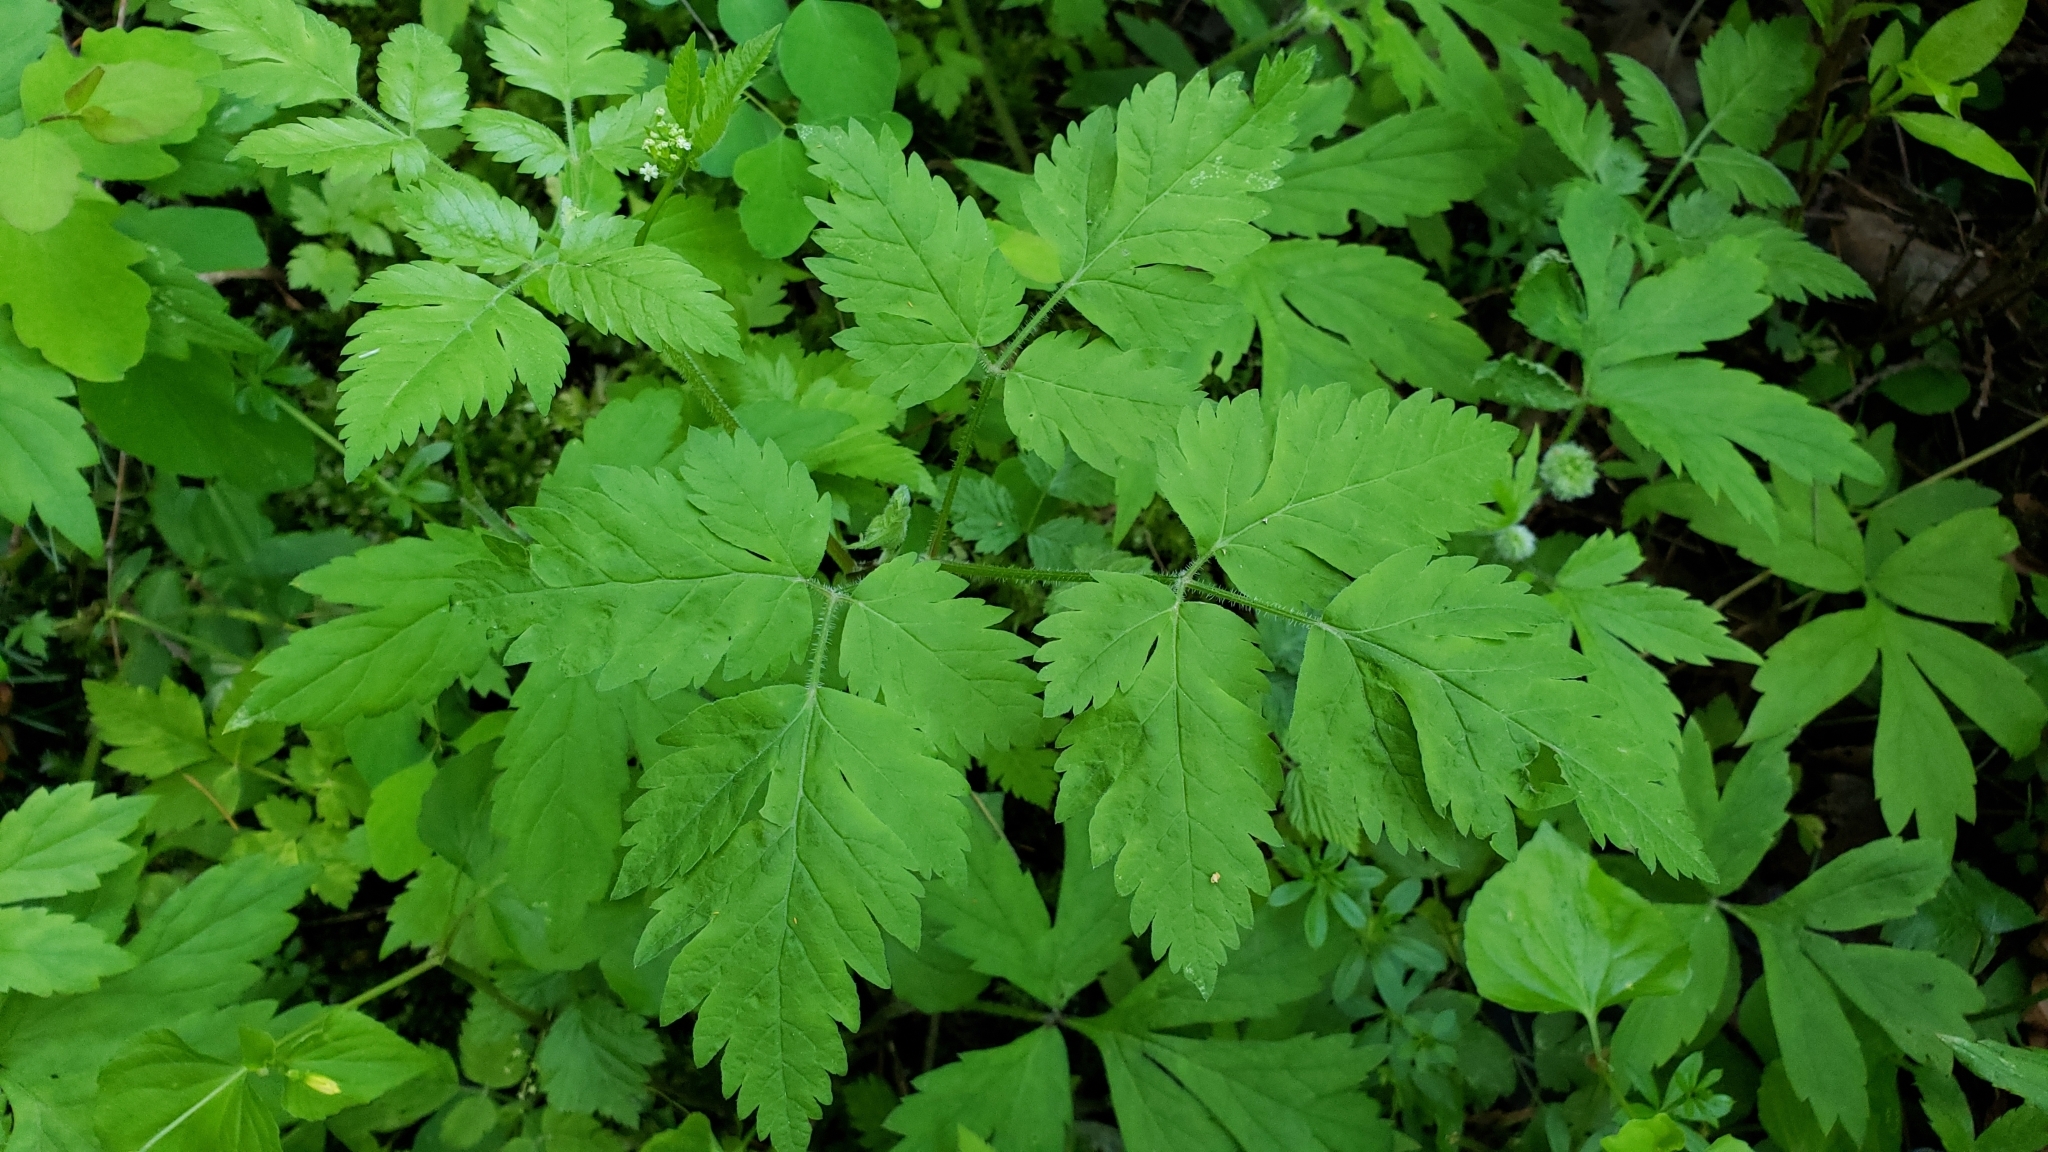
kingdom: Plantae
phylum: Tracheophyta
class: Magnoliopsida
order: Apiales
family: Apiaceae
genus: Osmorhiza
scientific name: Osmorhiza berteroi
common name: Mountain sweet cicely
